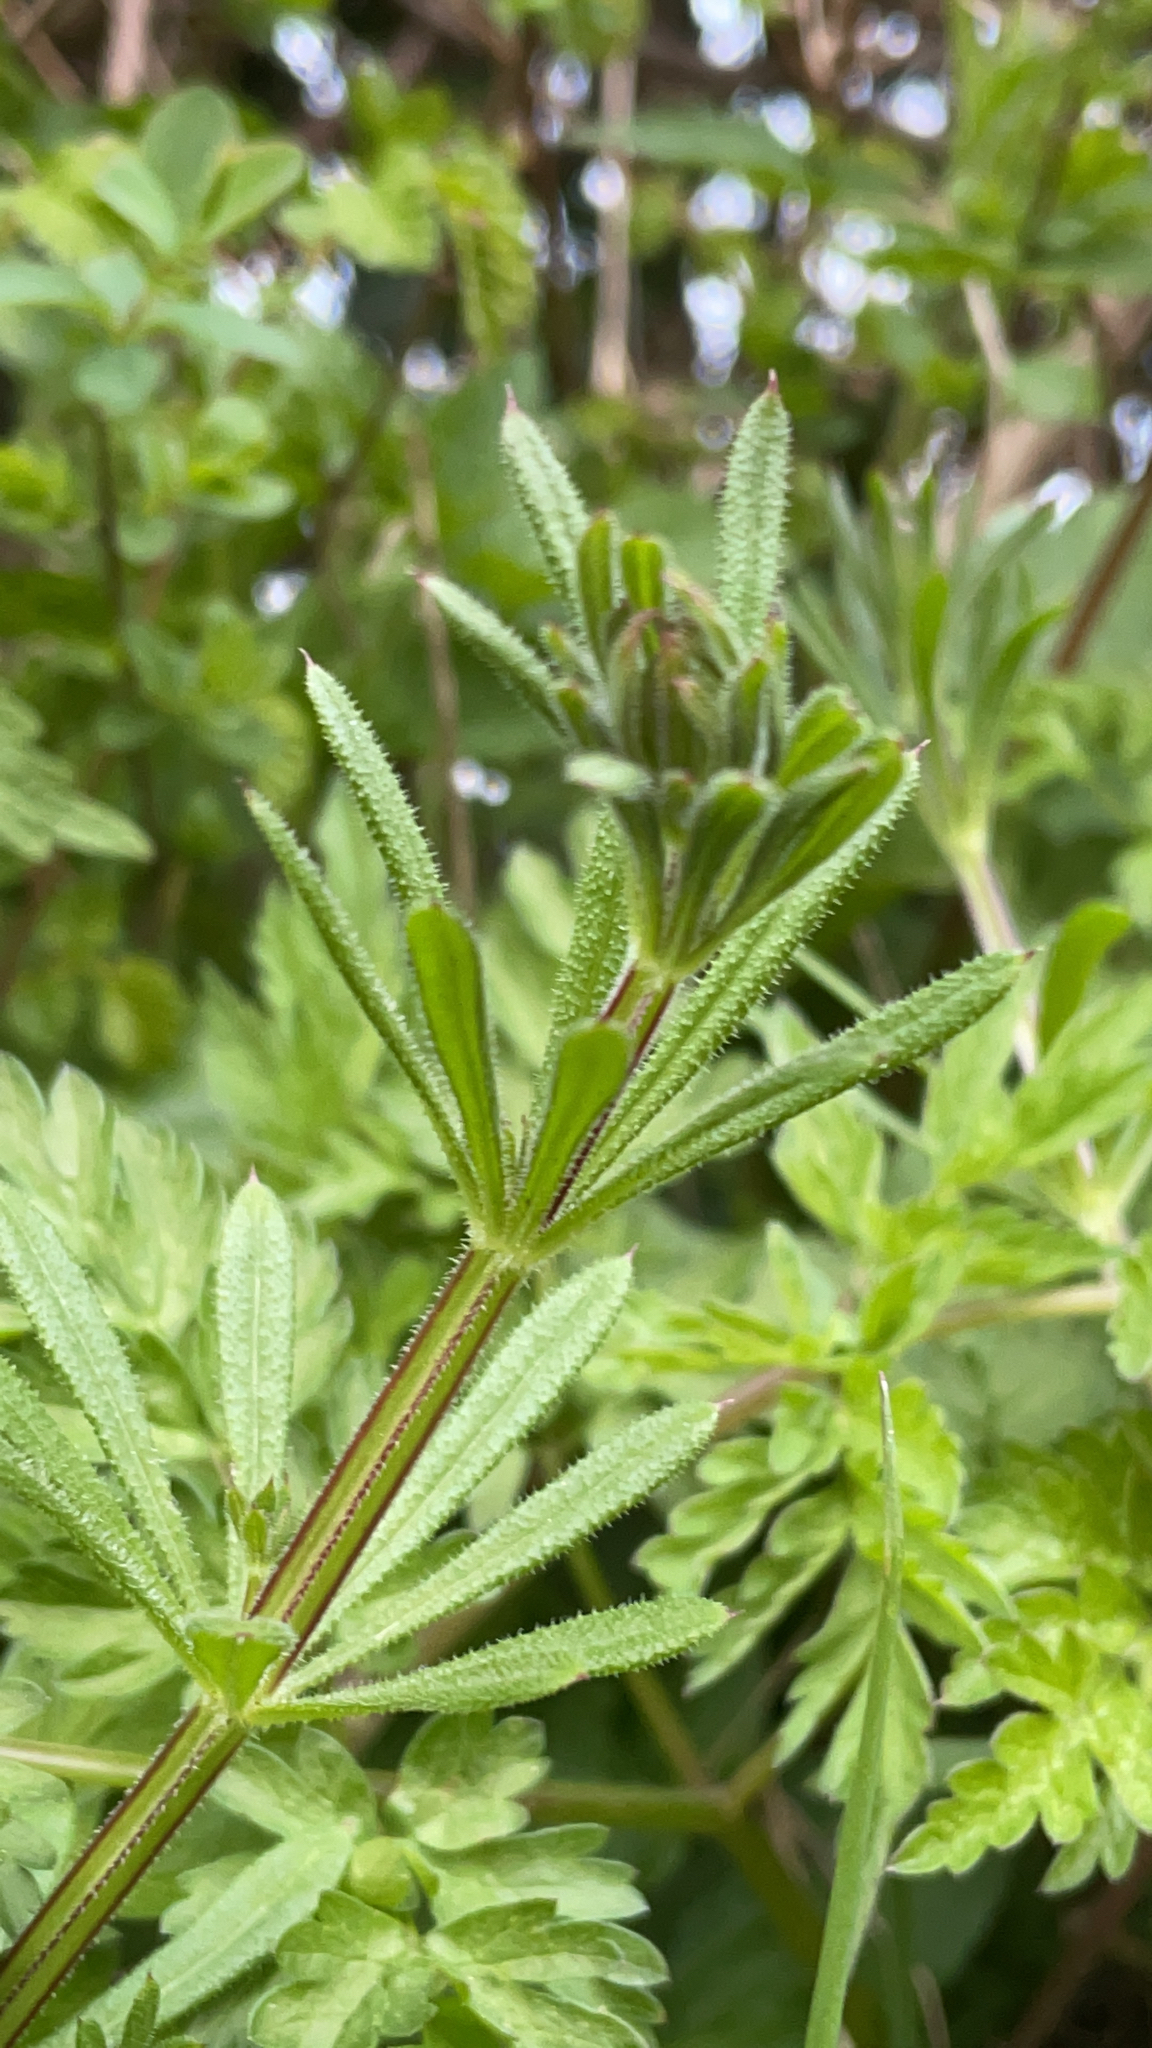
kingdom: Plantae
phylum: Tracheophyta
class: Magnoliopsida
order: Gentianales
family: Rubiaceae
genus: Galium
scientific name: Galium aparine
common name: Cleavers
